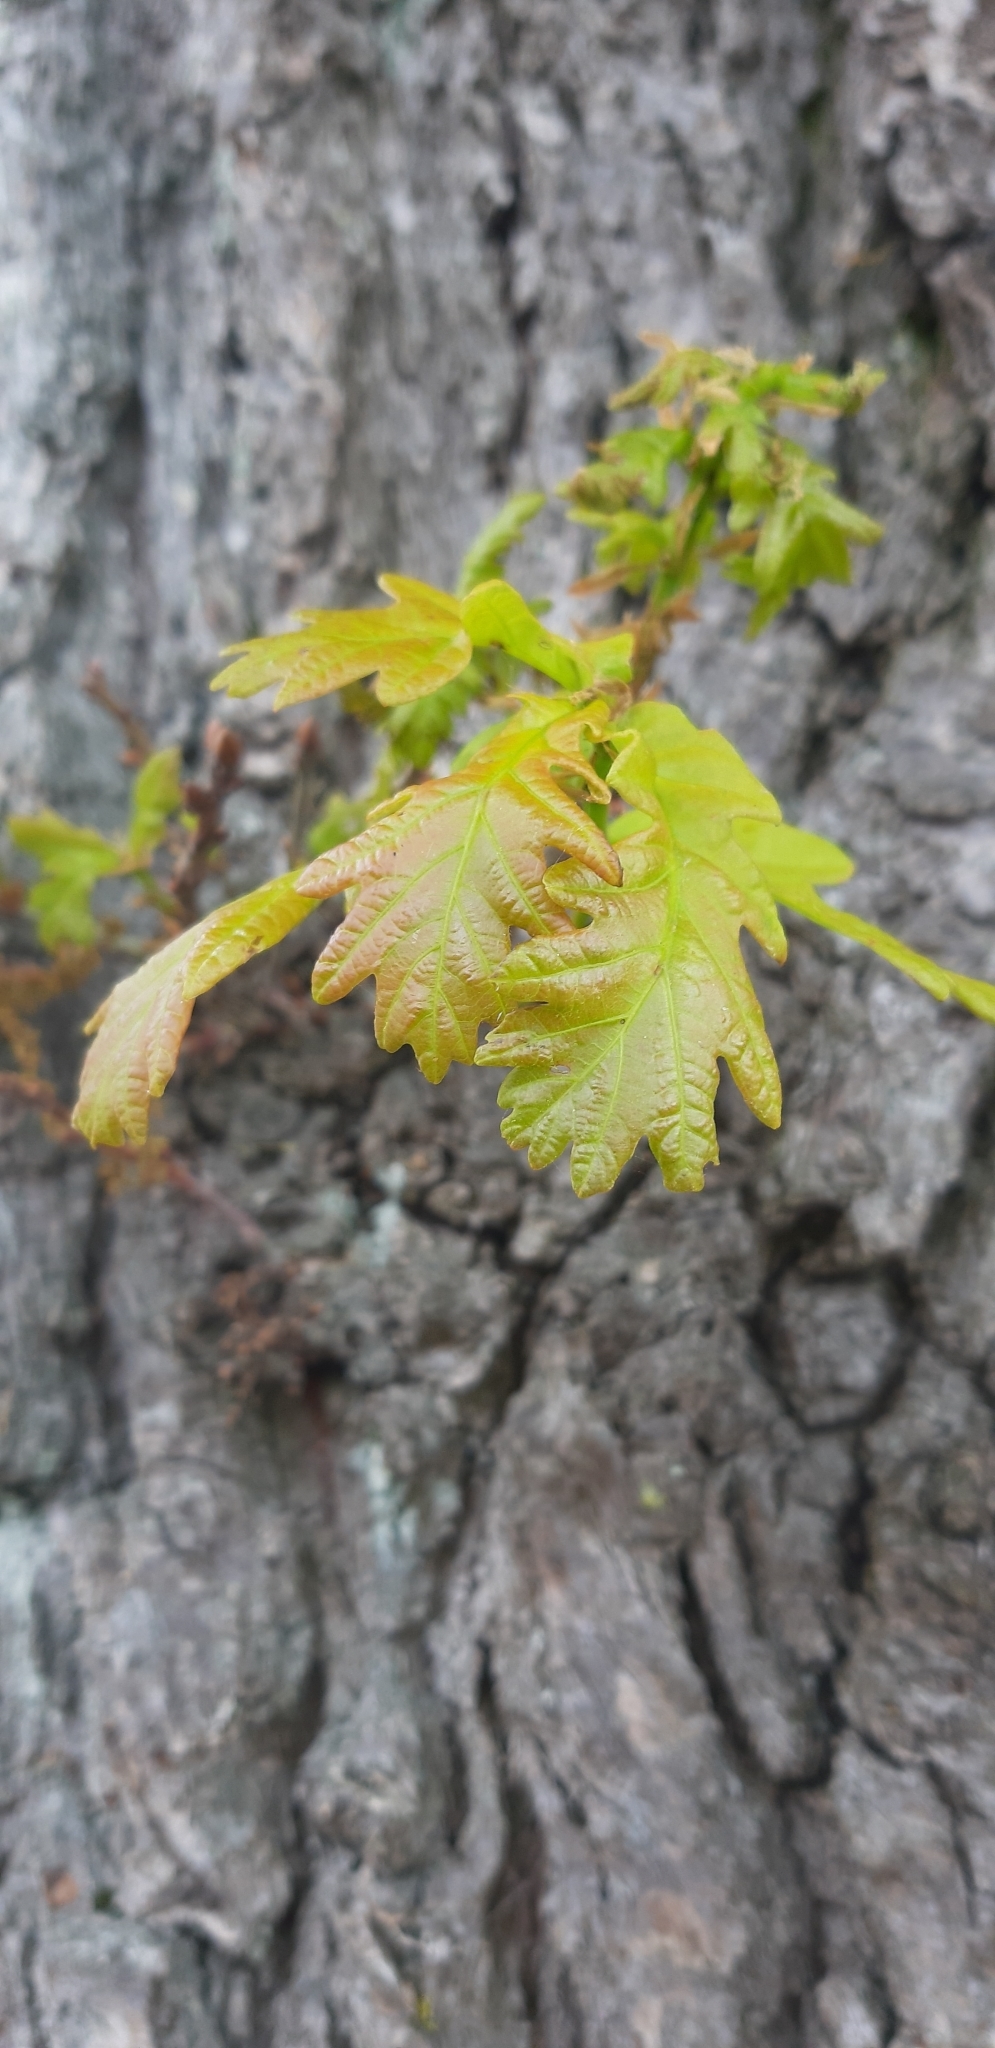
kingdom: Plantae
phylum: Tracheophyta
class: Magnoliopsida
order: Fagales
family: Fagaceae
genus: Quercus
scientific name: Quercus robur
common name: Pedunculate oak
